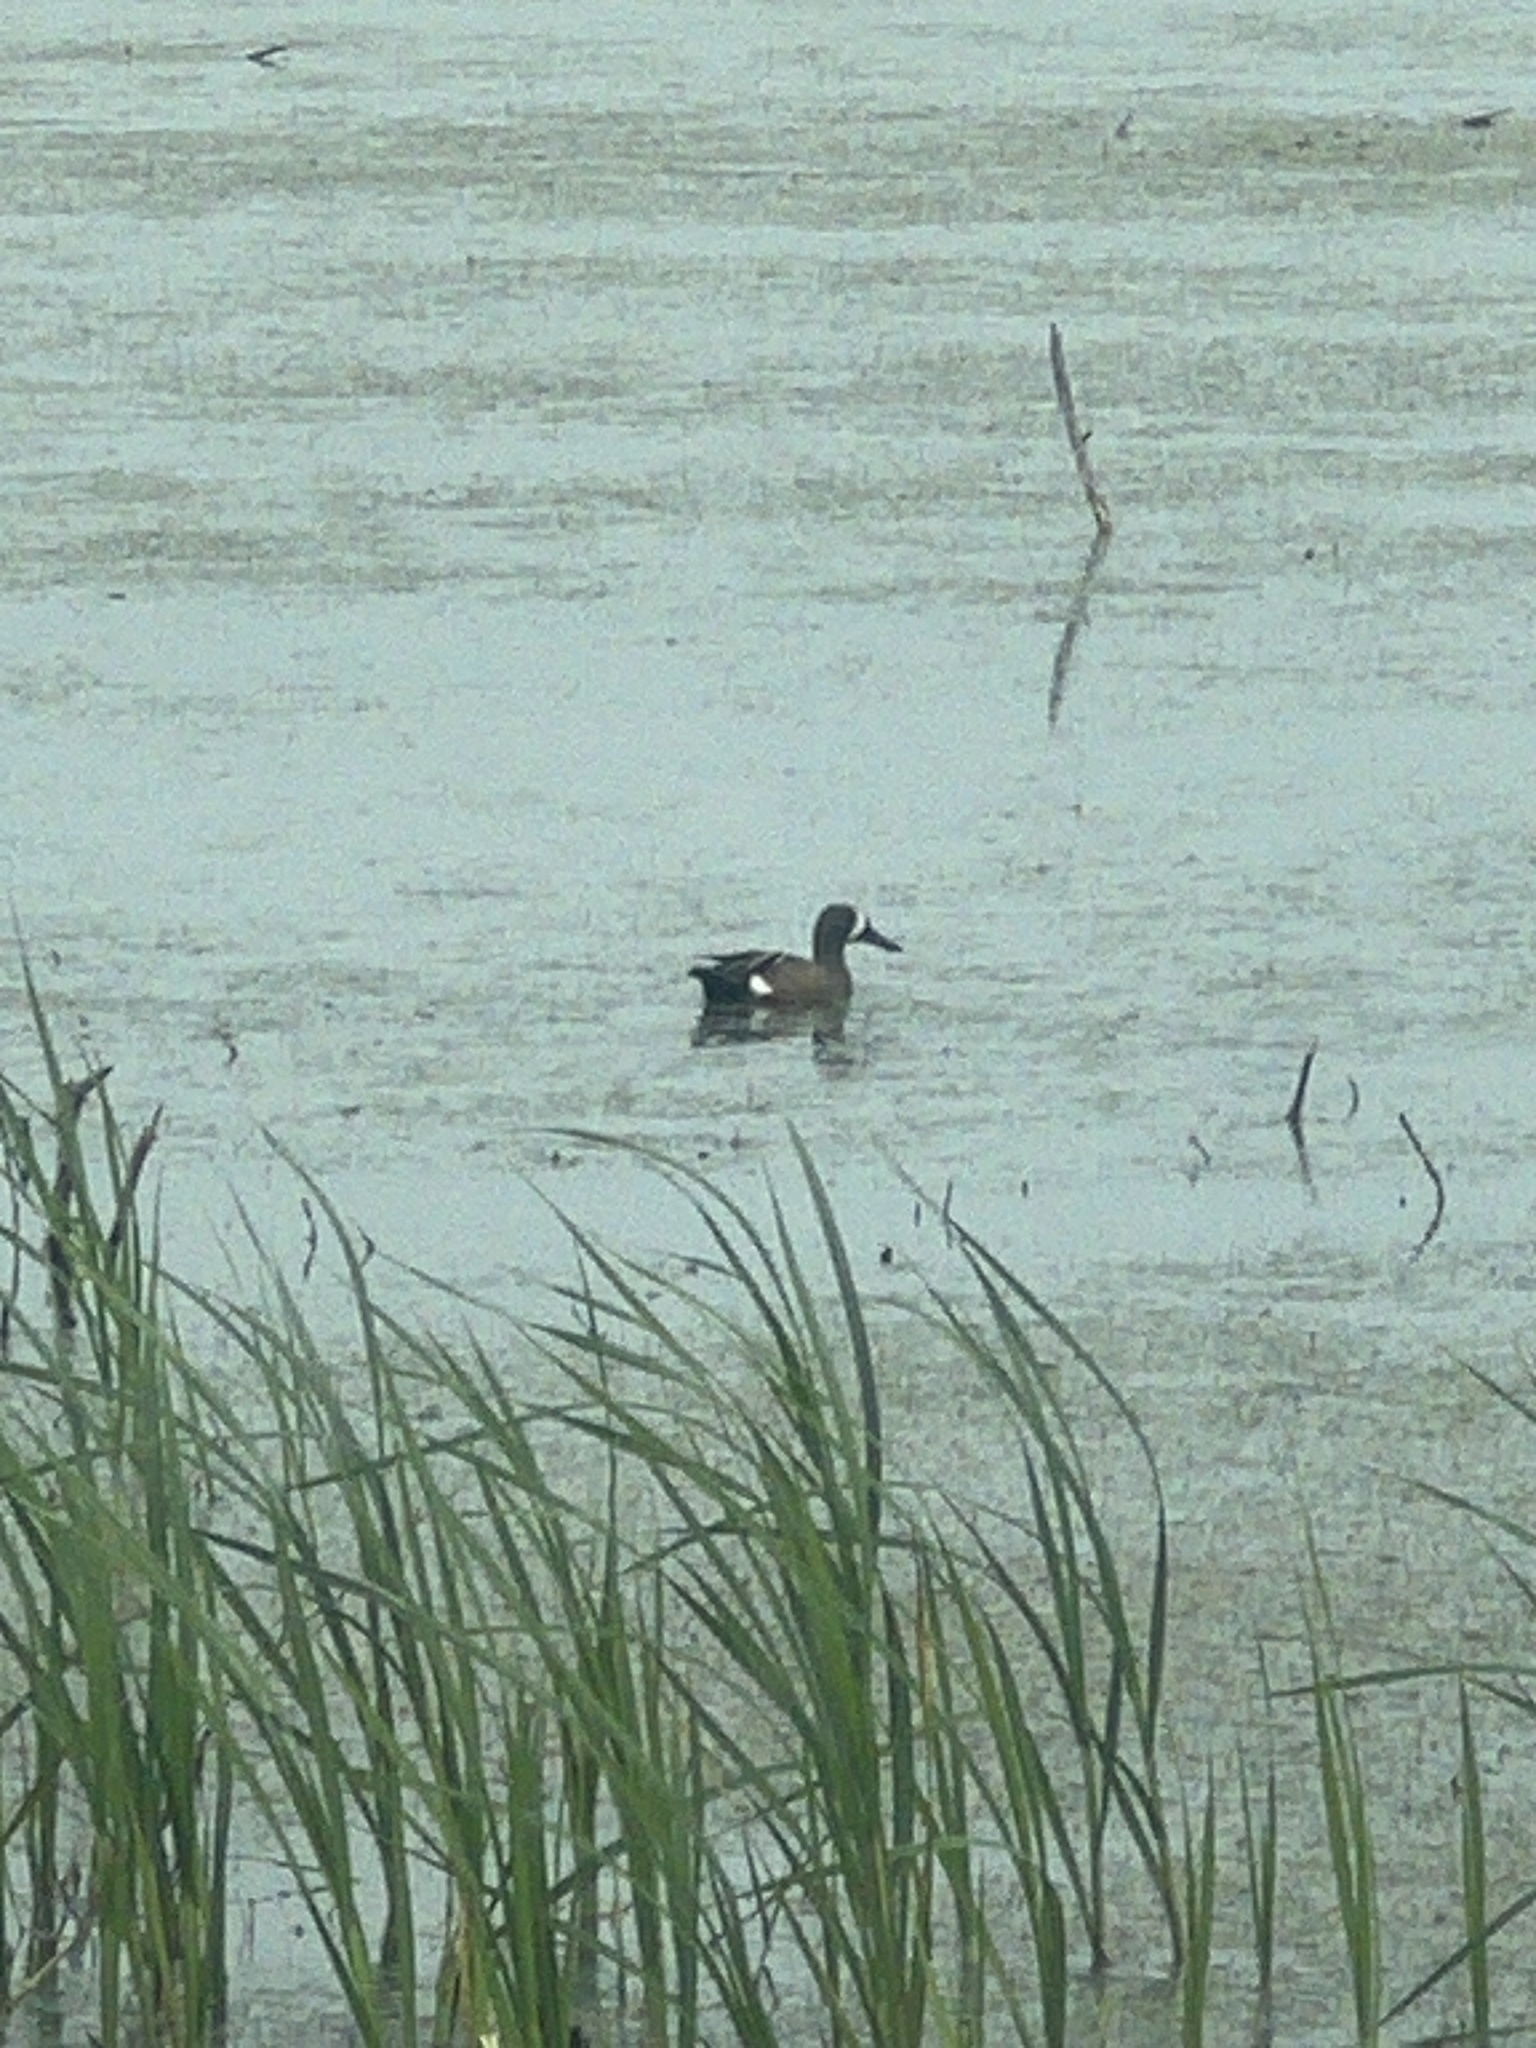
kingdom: Animalia
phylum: Chordata
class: Aves
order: Anseriformes
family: Anatidae
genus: Spatula
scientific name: Spatula discors
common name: Blue-winged teal
